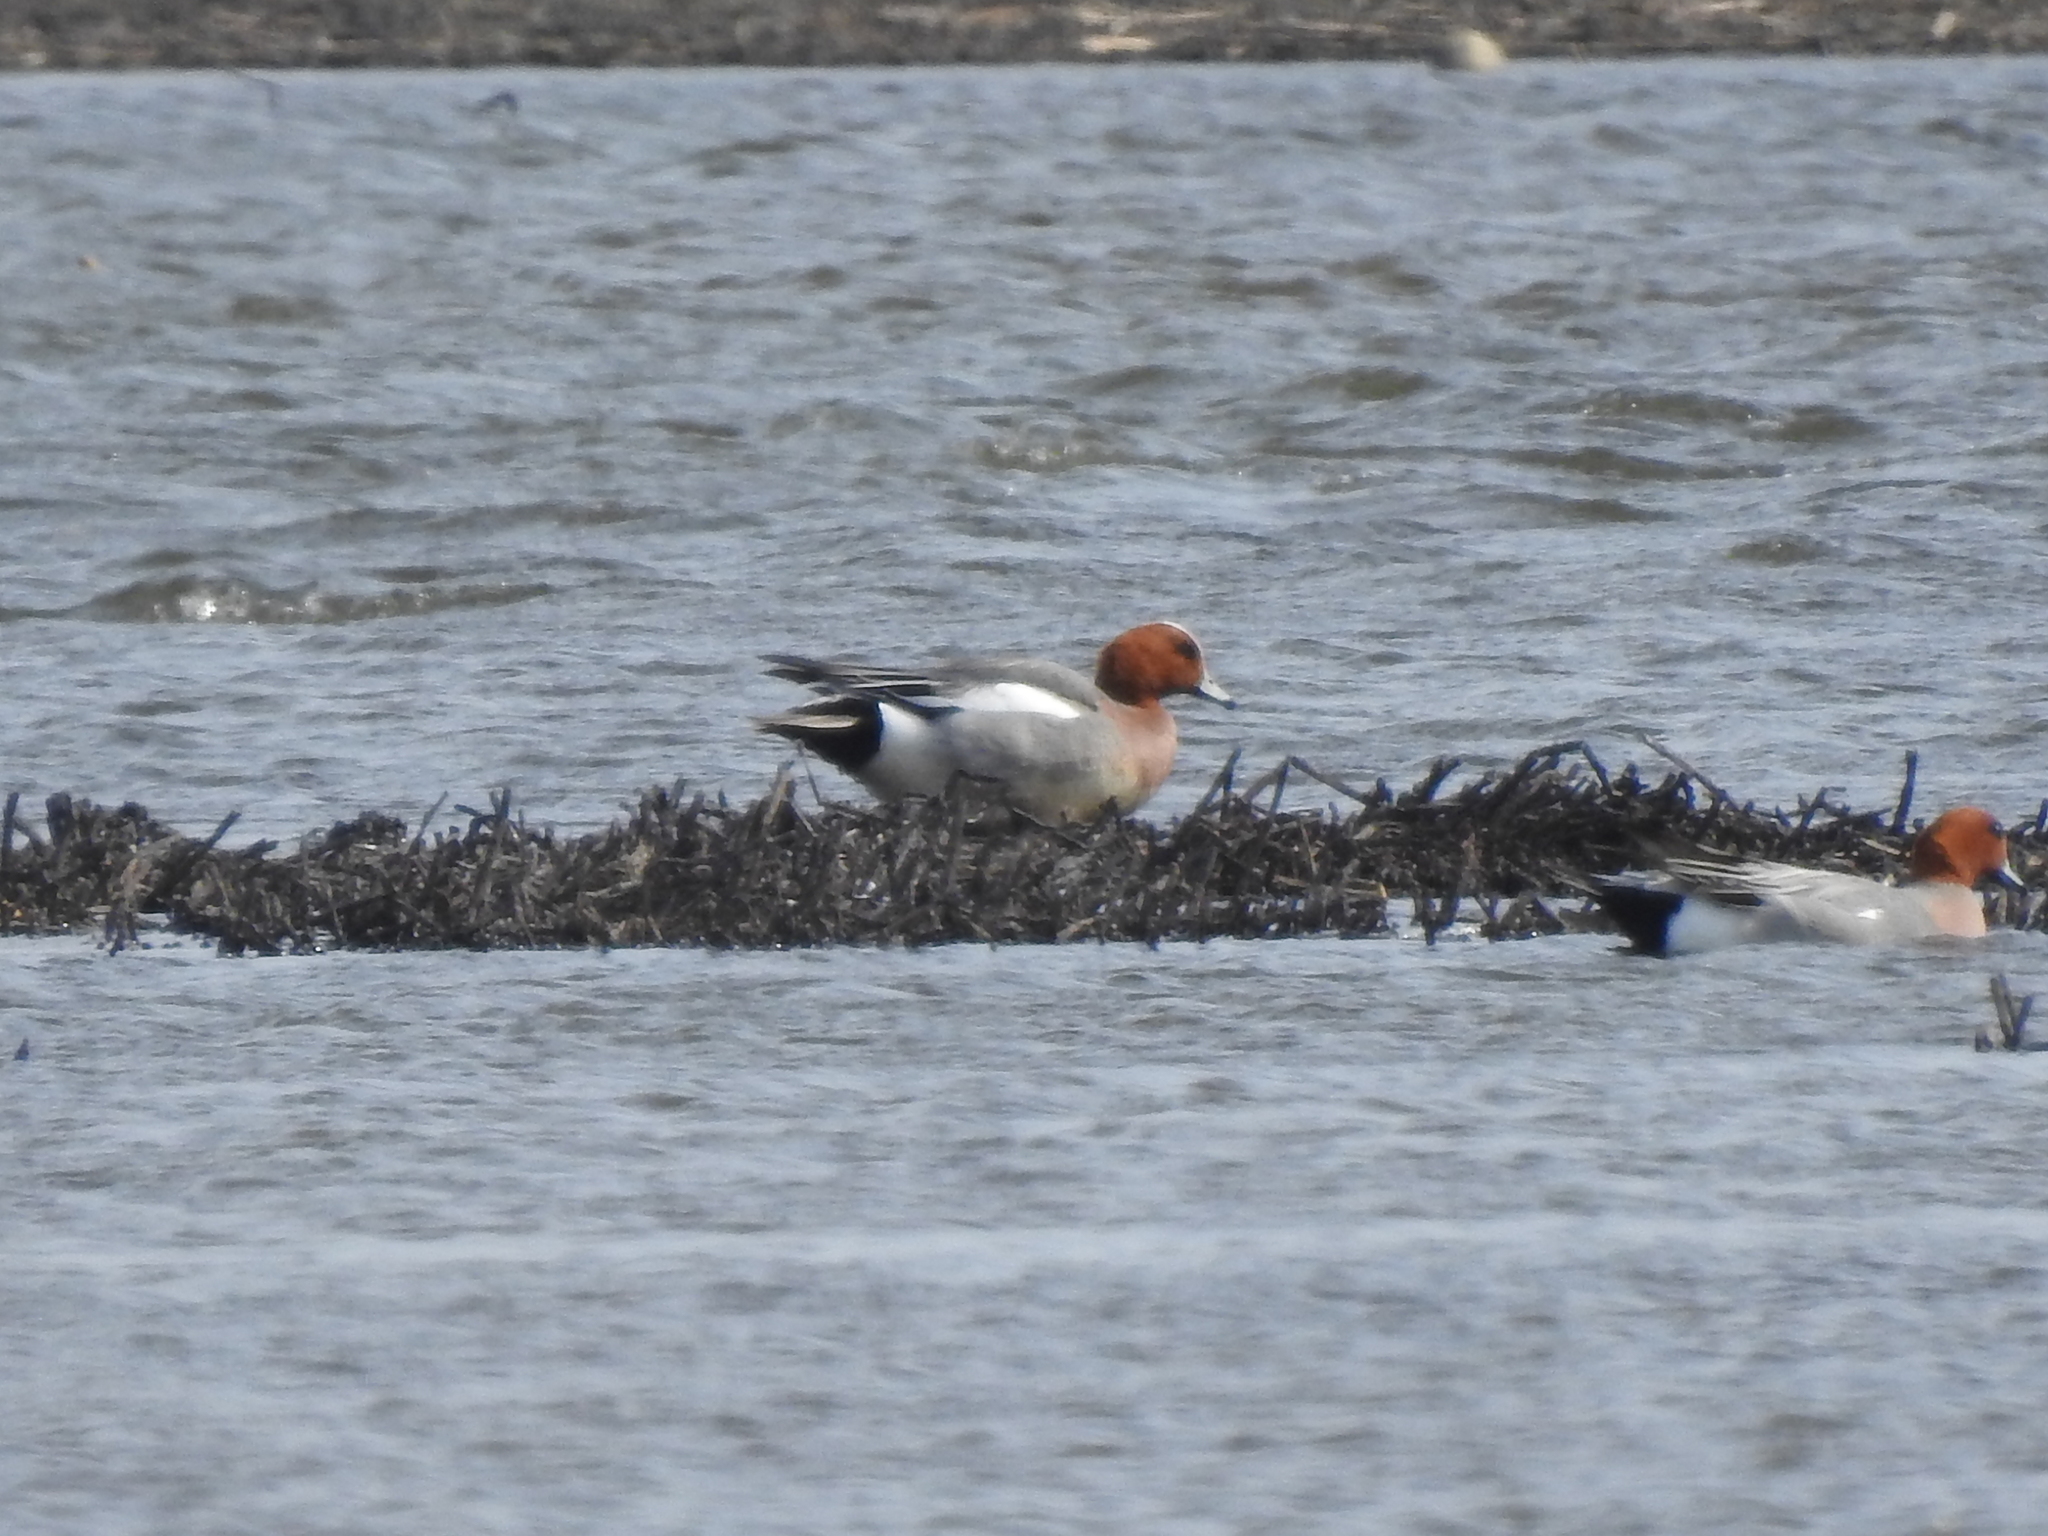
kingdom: Animalia
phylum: Chordata
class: Aves
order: Anseriformes
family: Anatidae
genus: Mareca
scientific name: Mareca penelope
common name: Eurasian wigeon
